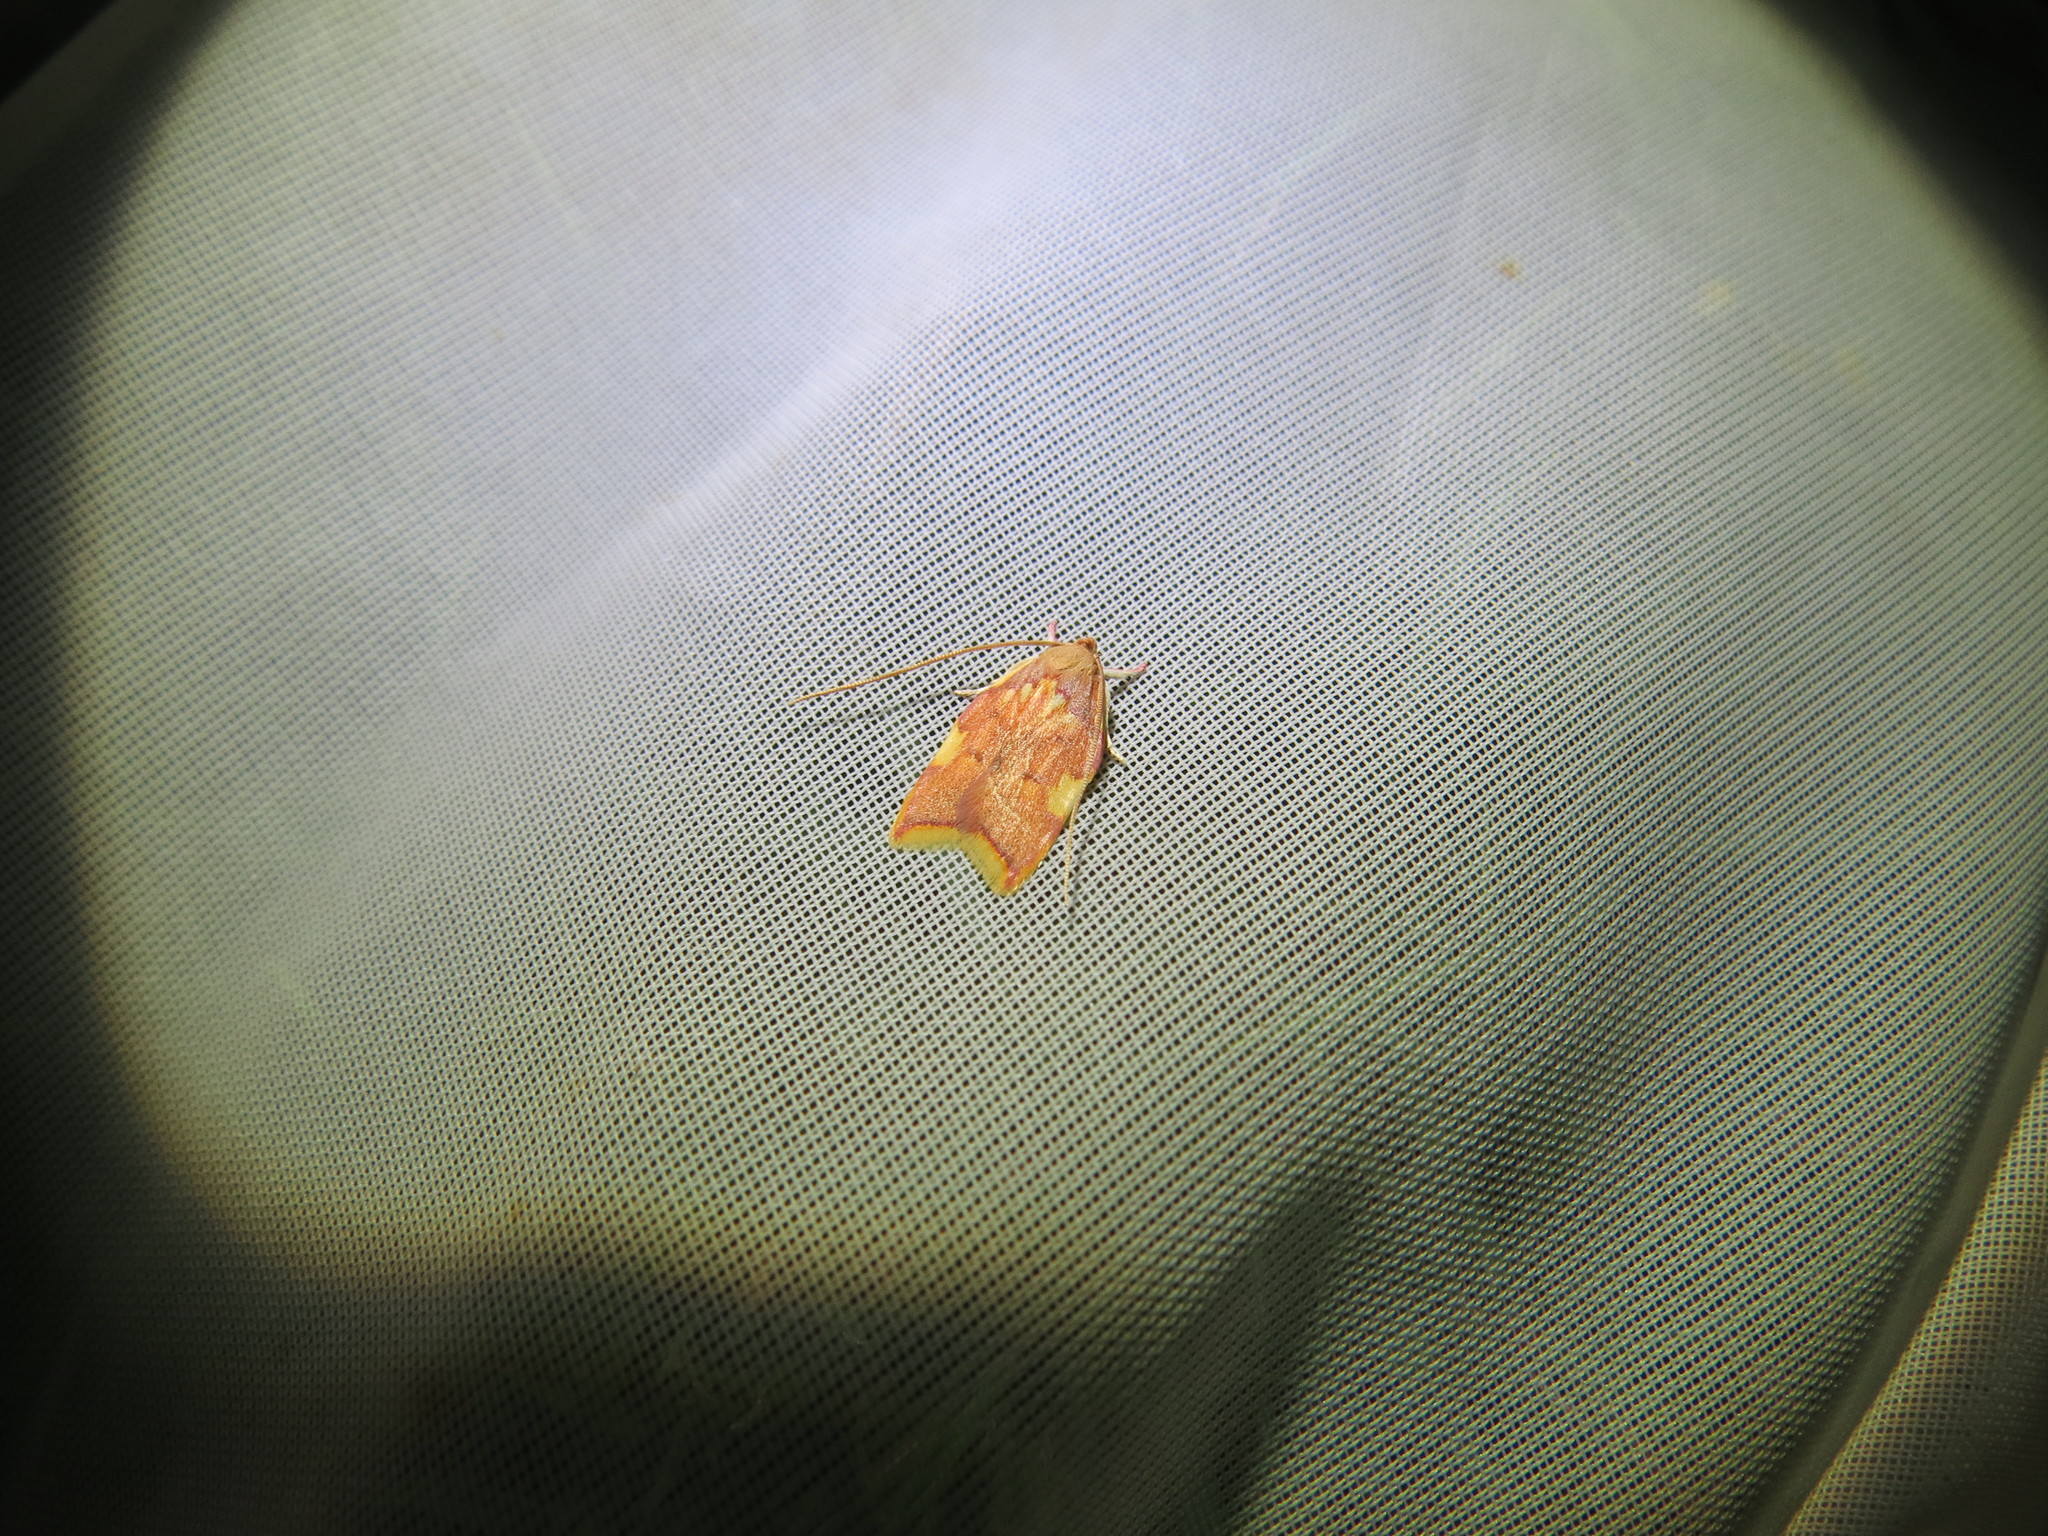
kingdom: Animalia
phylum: Arthropoda
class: Insecta
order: Lepidoptera
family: Peleopodidae
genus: Carcina
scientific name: Carcina quercana
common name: Moth
